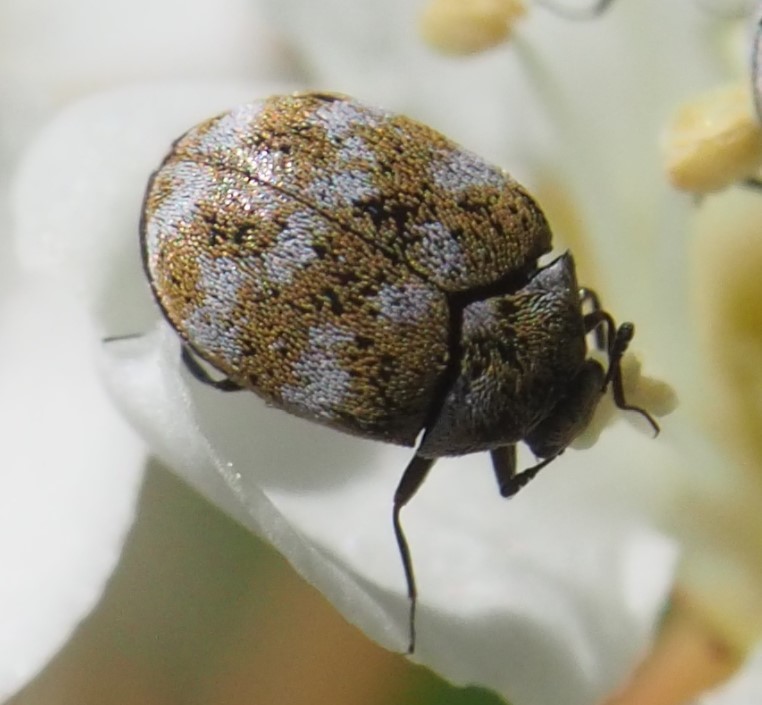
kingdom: Animalia
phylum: Arthropoda
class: Insecta
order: Coleoptera
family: Dermestidae
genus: Anthrenus
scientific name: Anthrenus verbasci
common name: Varied carpet beetle
